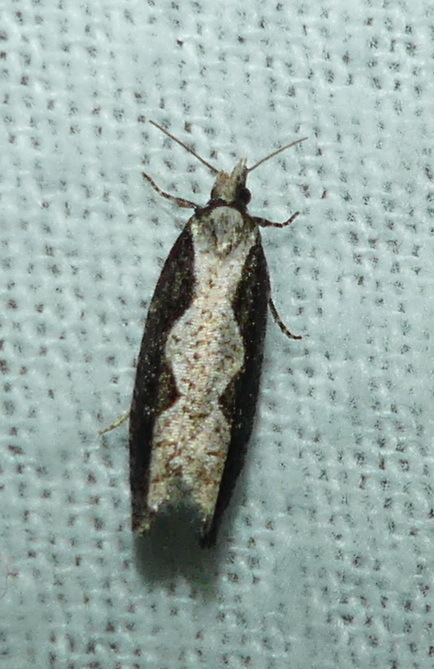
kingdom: Animalia
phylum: Arthropoda
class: Insecta
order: Lepidoptera
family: Tortricidae
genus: Epinotia
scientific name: Epinotia lindana
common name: Diamondback epinotia moth
